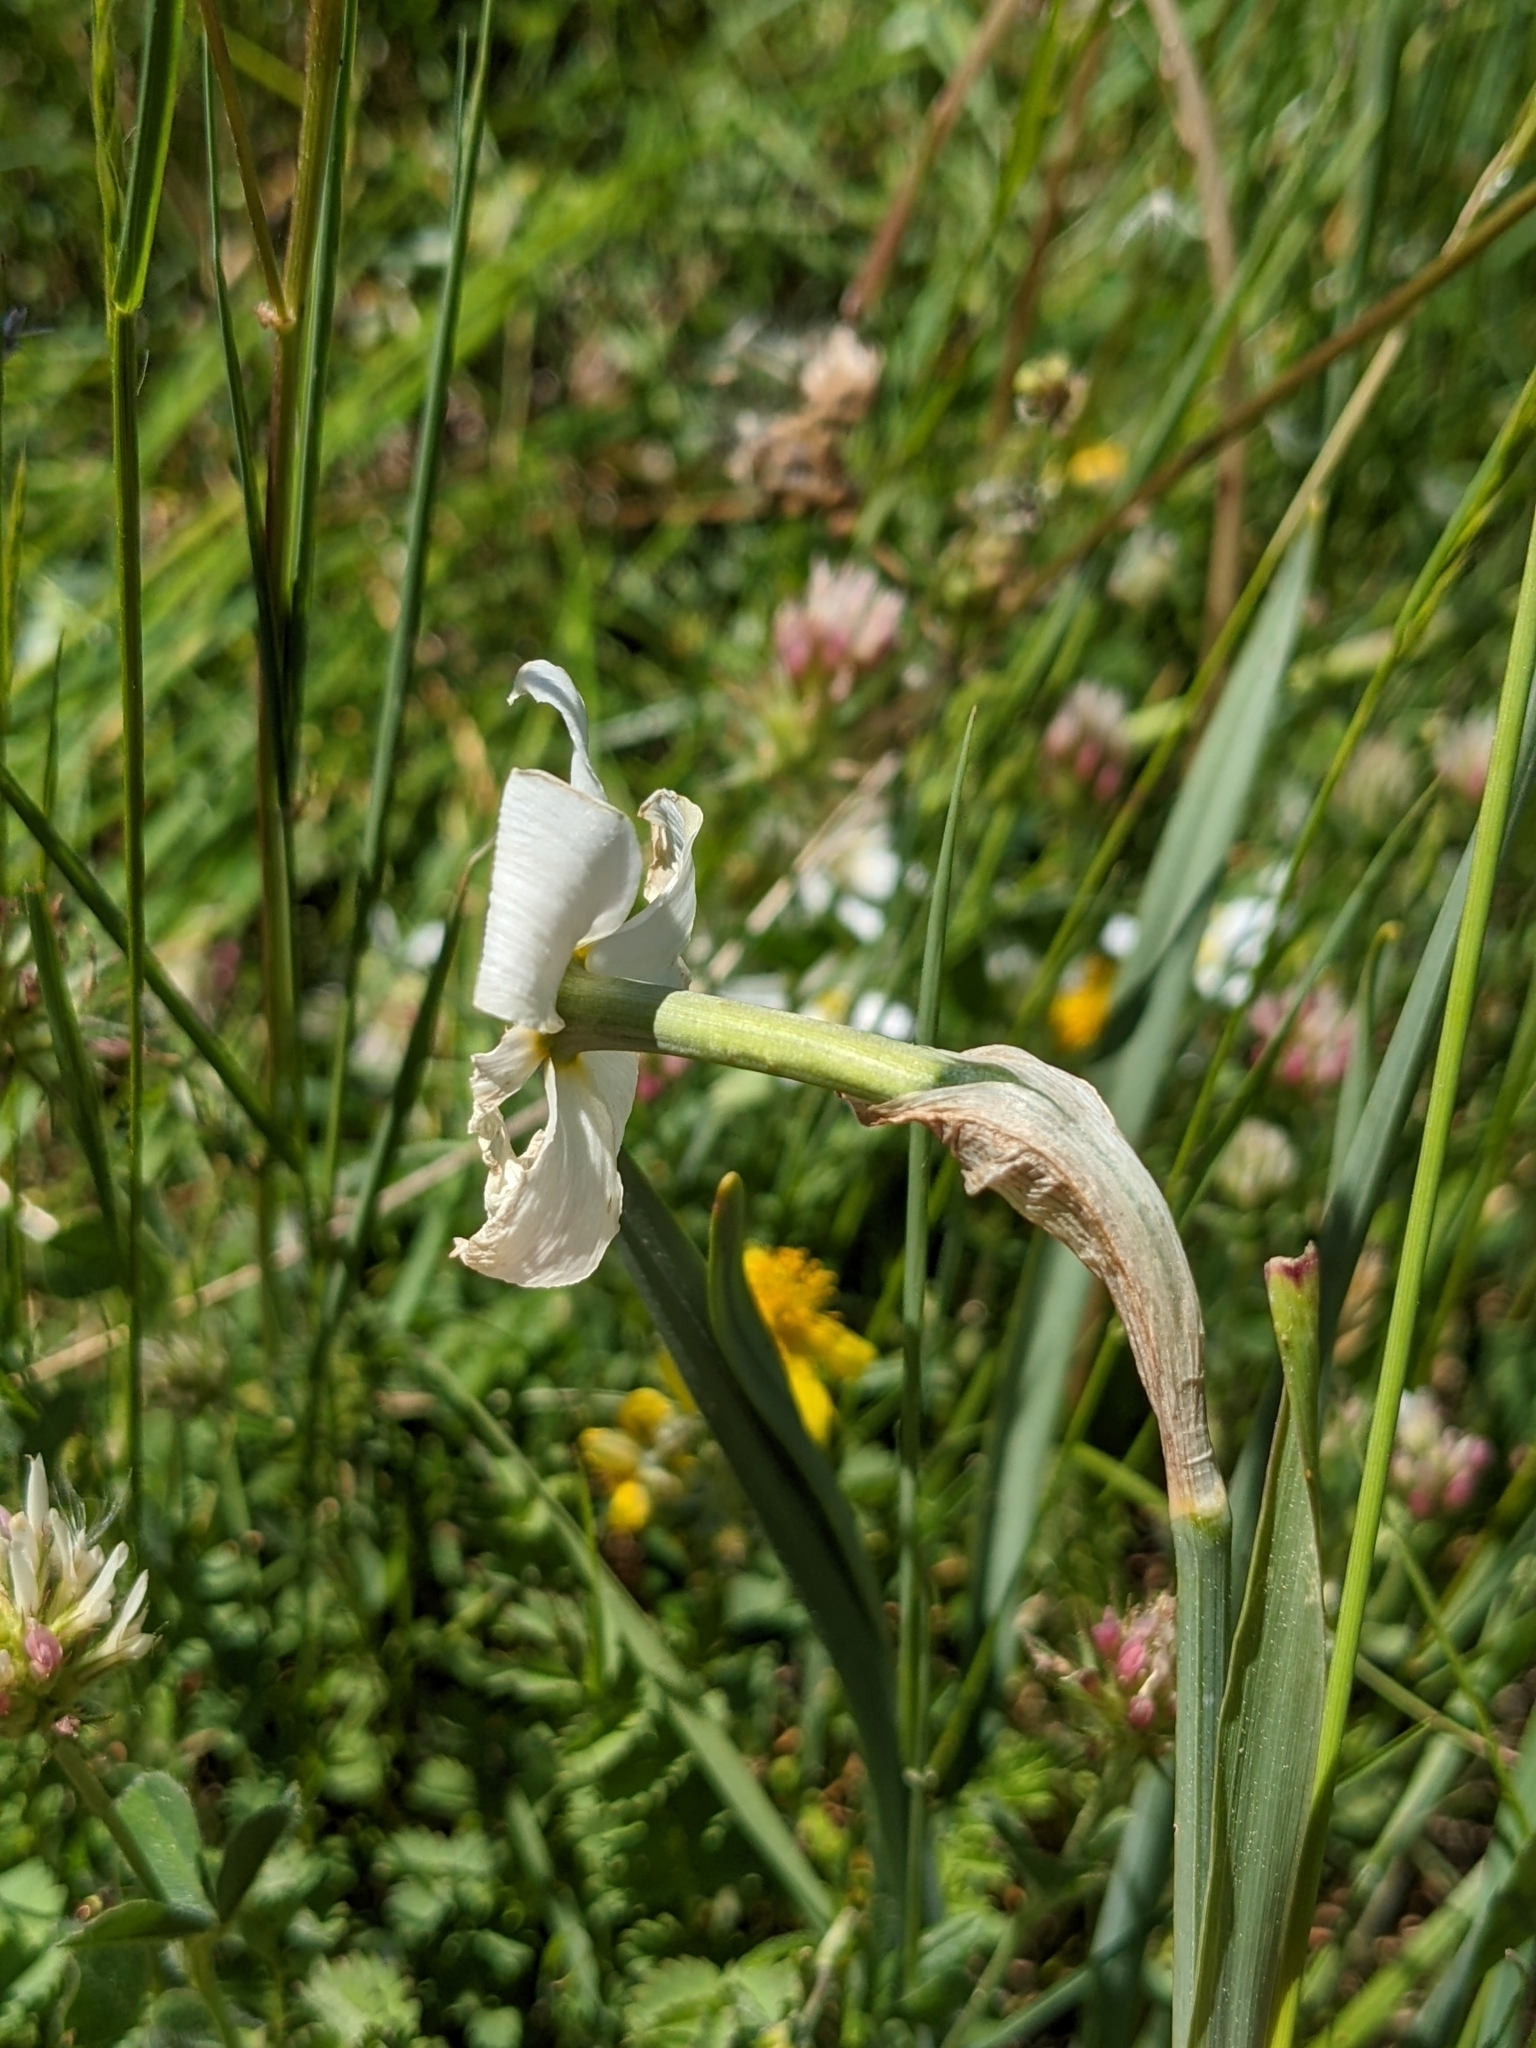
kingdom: Plantae
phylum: Tracheophyta
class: Liliopsida
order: Asparagales
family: Amaryllidaceae
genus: Narcissus
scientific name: Narcissus poeticus
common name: Pheasant's-eye daffodil
